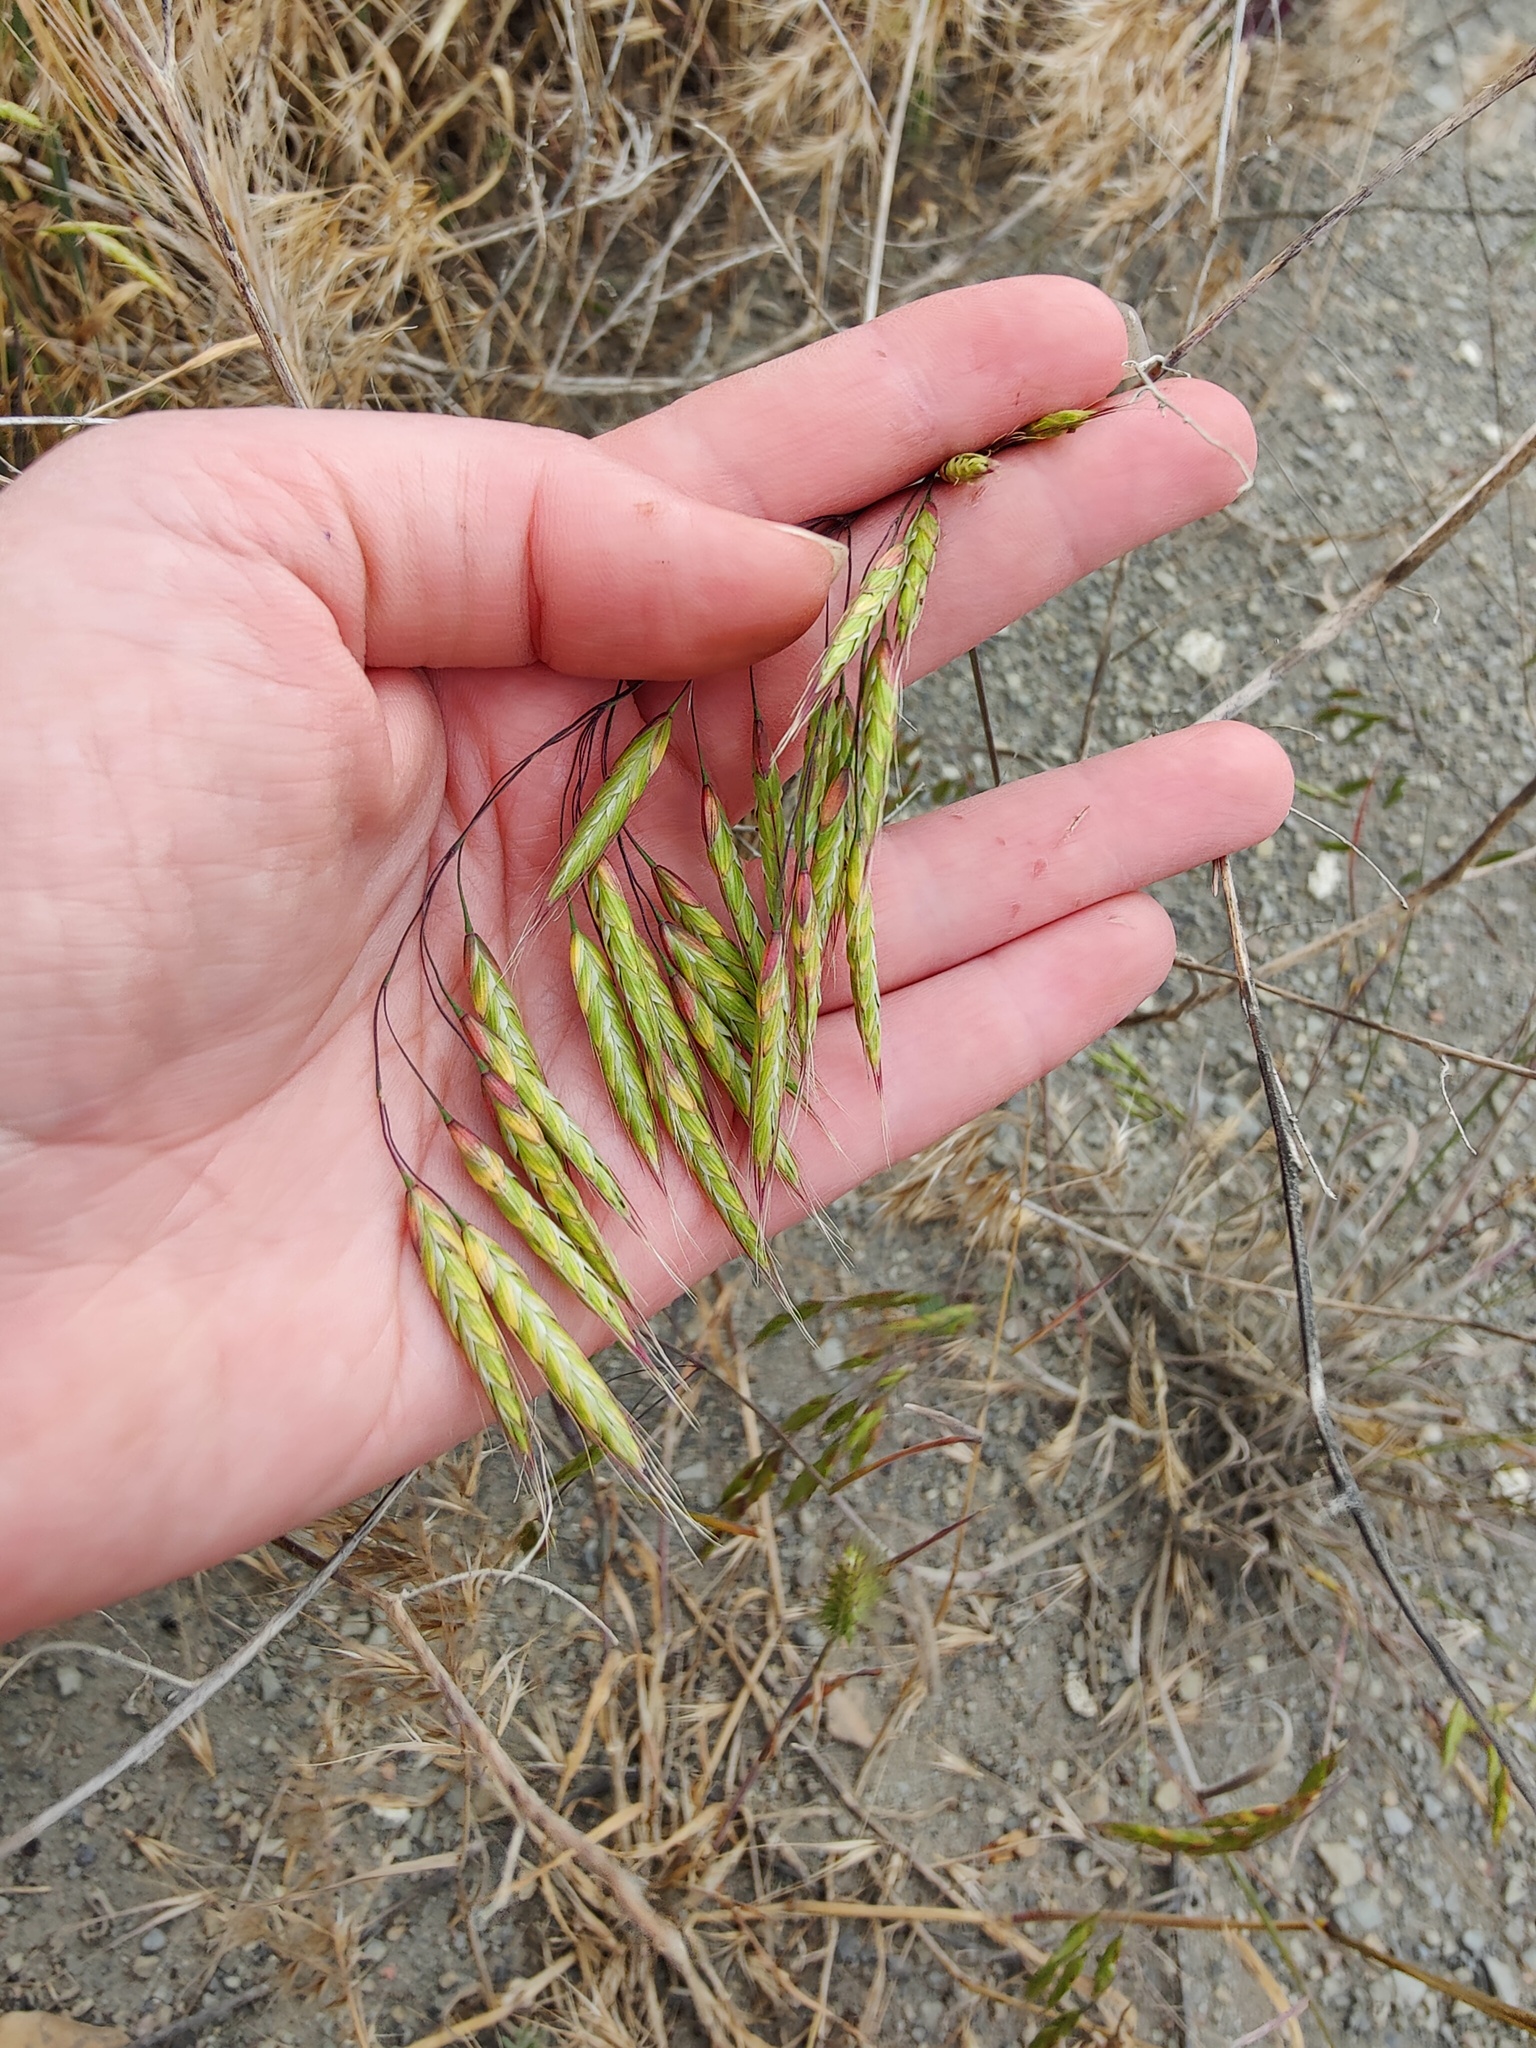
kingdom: Plantae
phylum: Tracheophyta
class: Liliopsida
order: Poales
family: Poaceae
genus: Bromus
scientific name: Bromus squarrosus
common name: Corn brome
